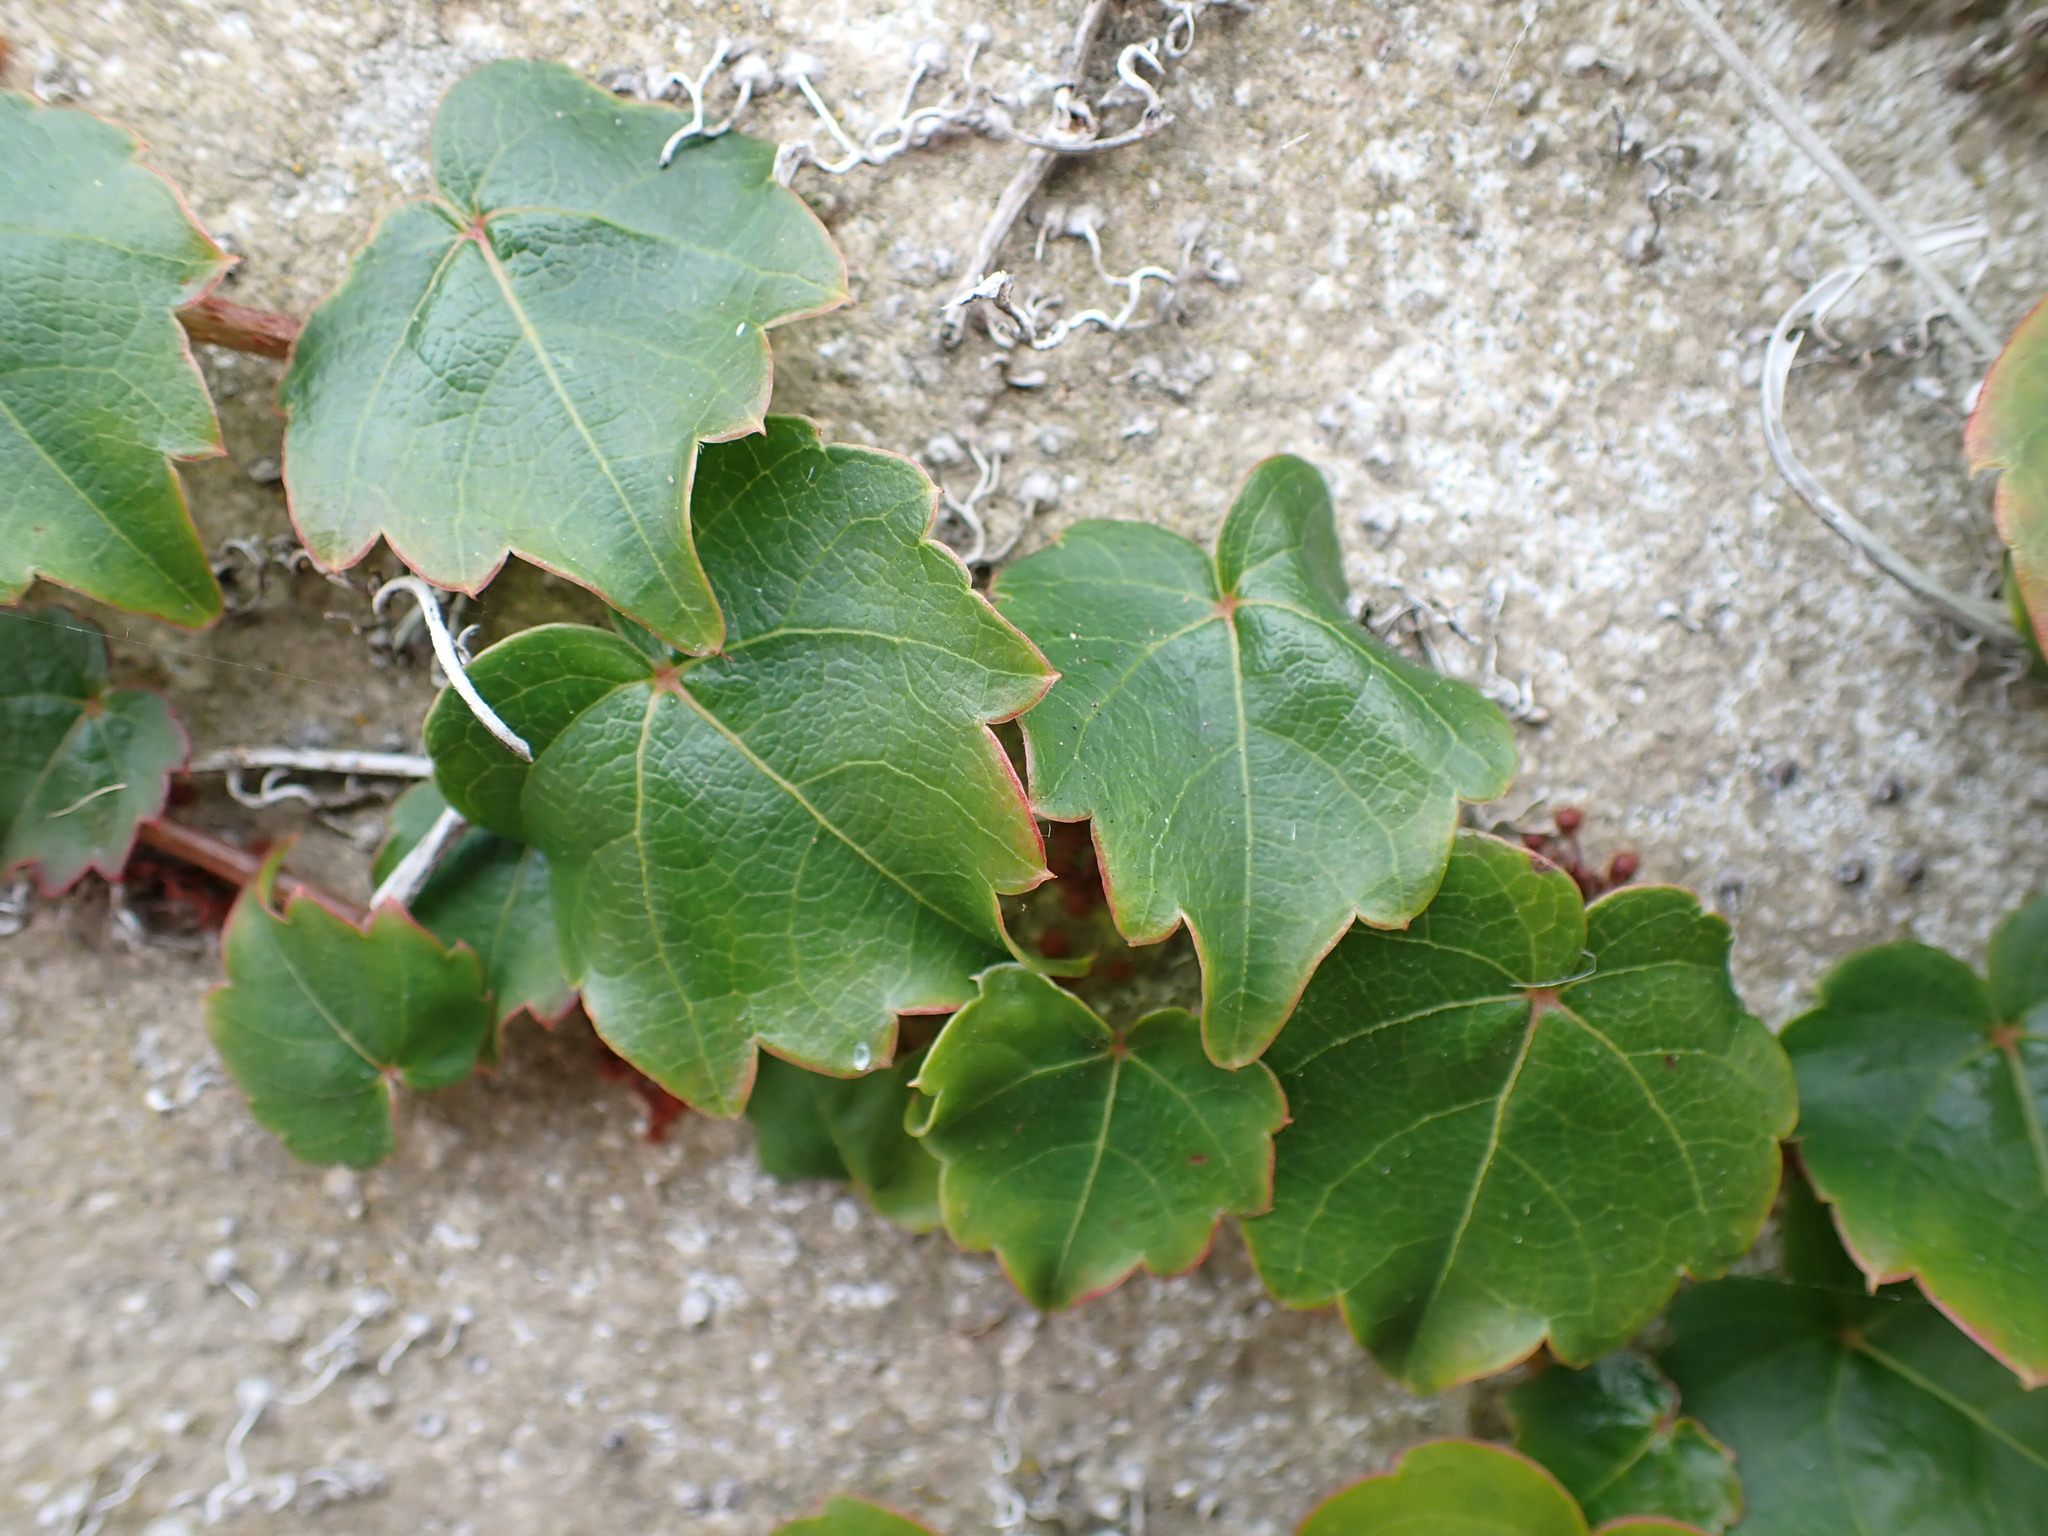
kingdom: Plantae
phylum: Tracheophyta
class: Magnoliopsida
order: Vitales
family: Vitaceae
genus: Parthenocissus
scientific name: Parthenocissus tricuspidata
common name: Boston ivy
